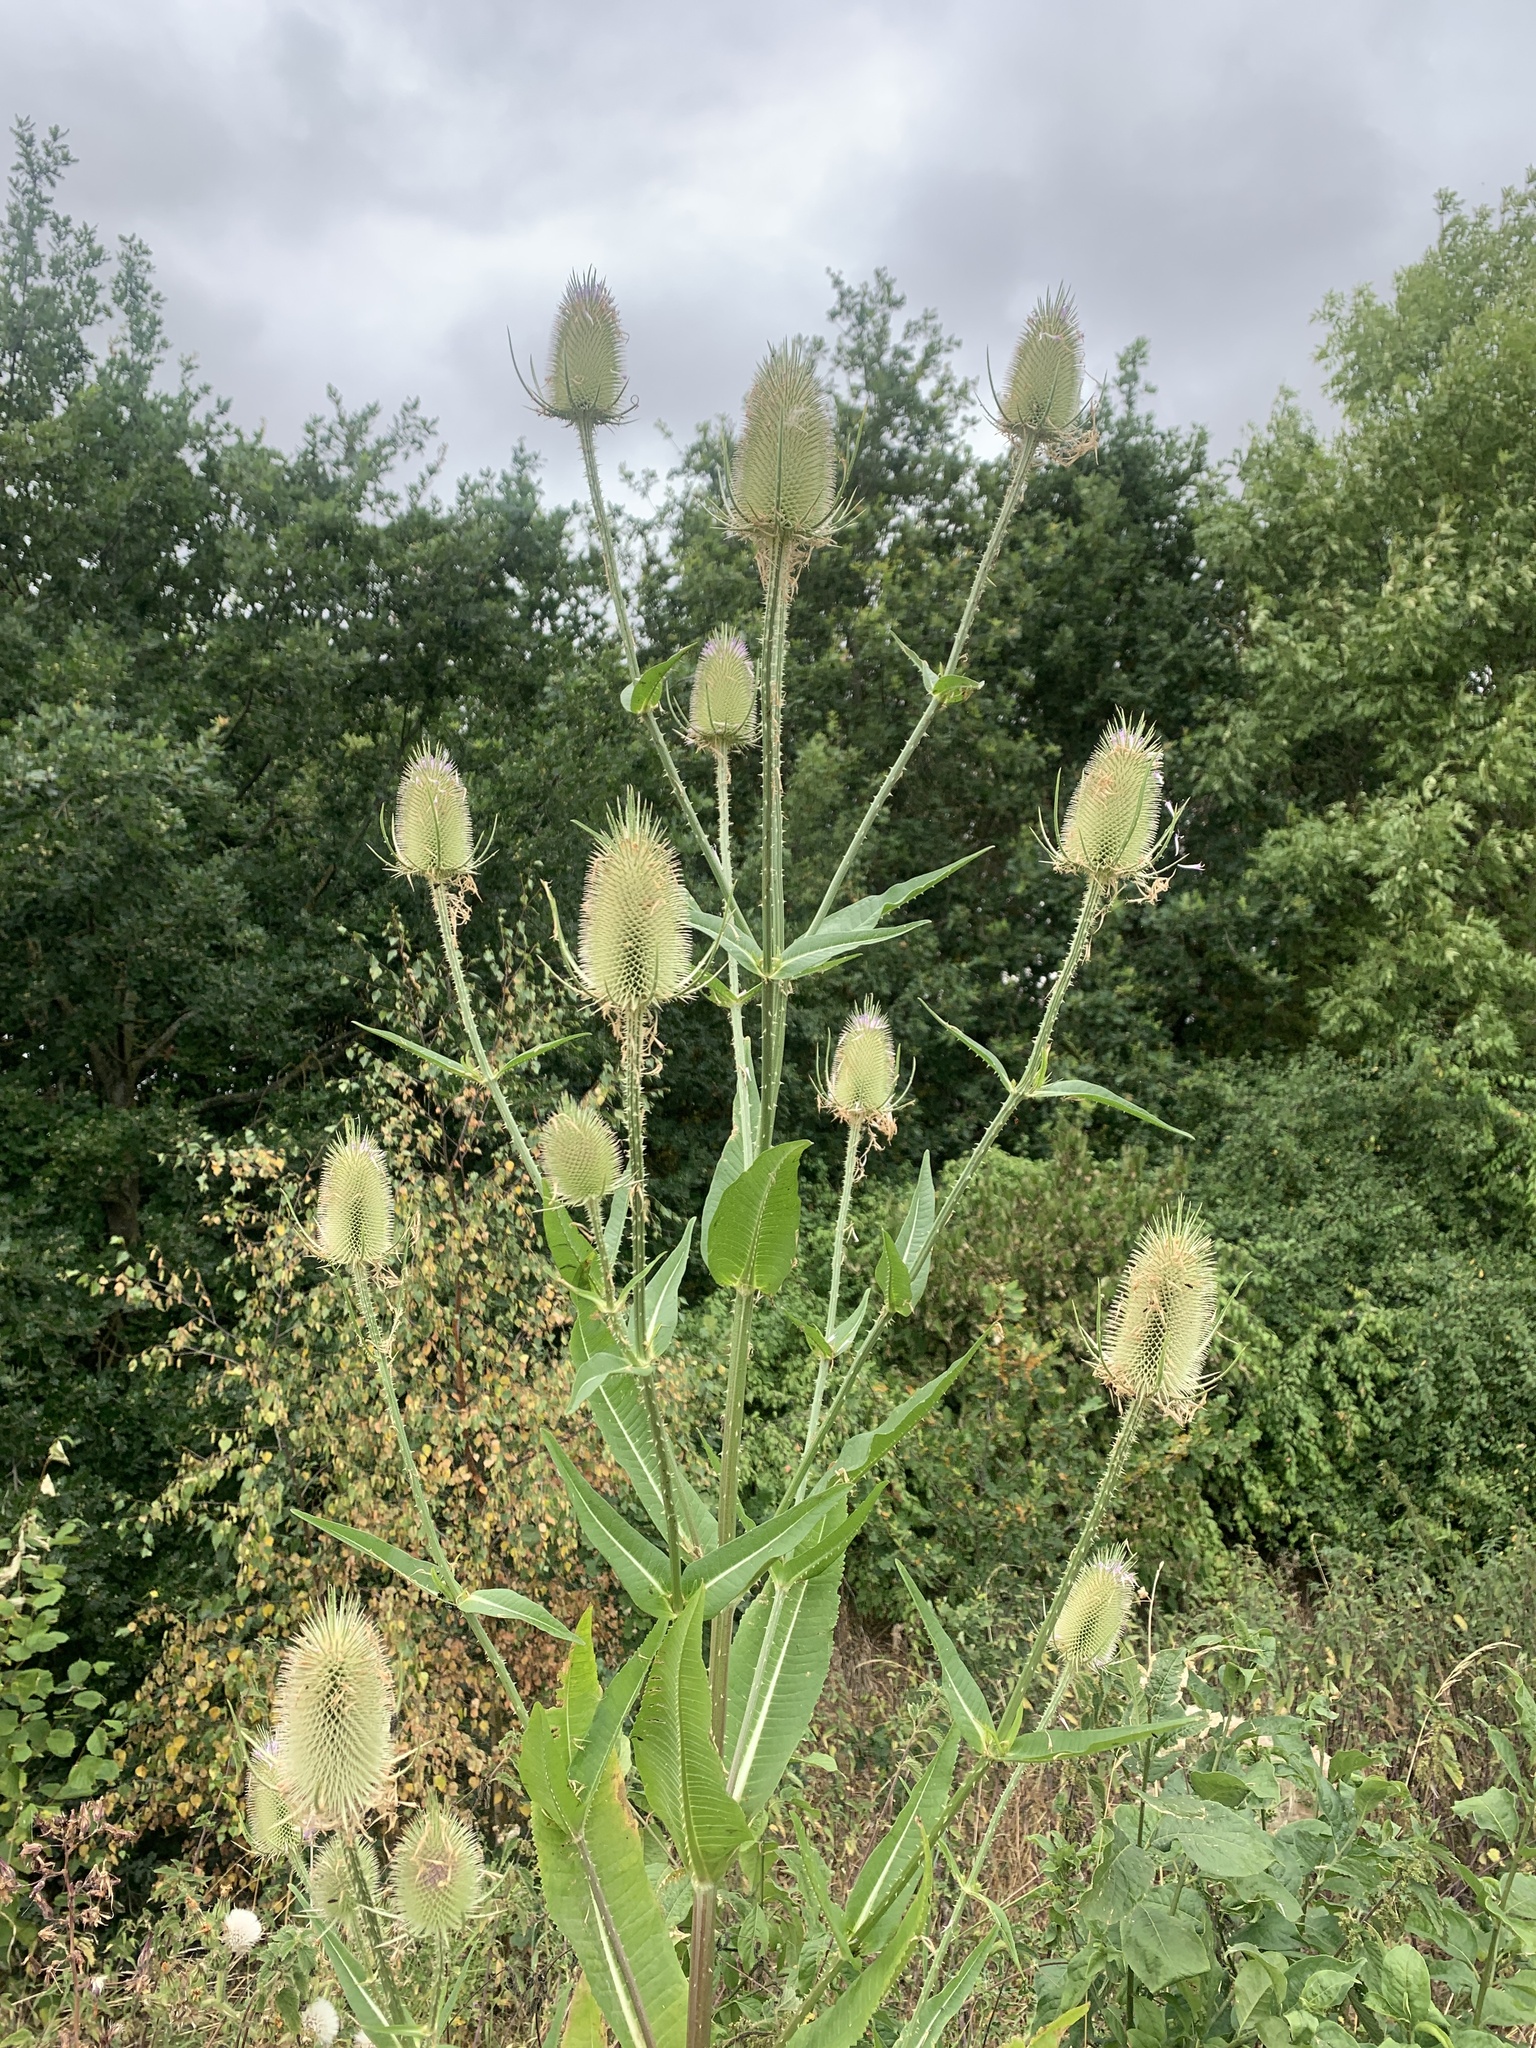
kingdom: Plantae
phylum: Tracheophyta
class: Magnoliopsida
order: Dipsacales
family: Caprifoliaceae
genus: Dipsacus
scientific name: Dipsacus fullonum
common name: Teasel
